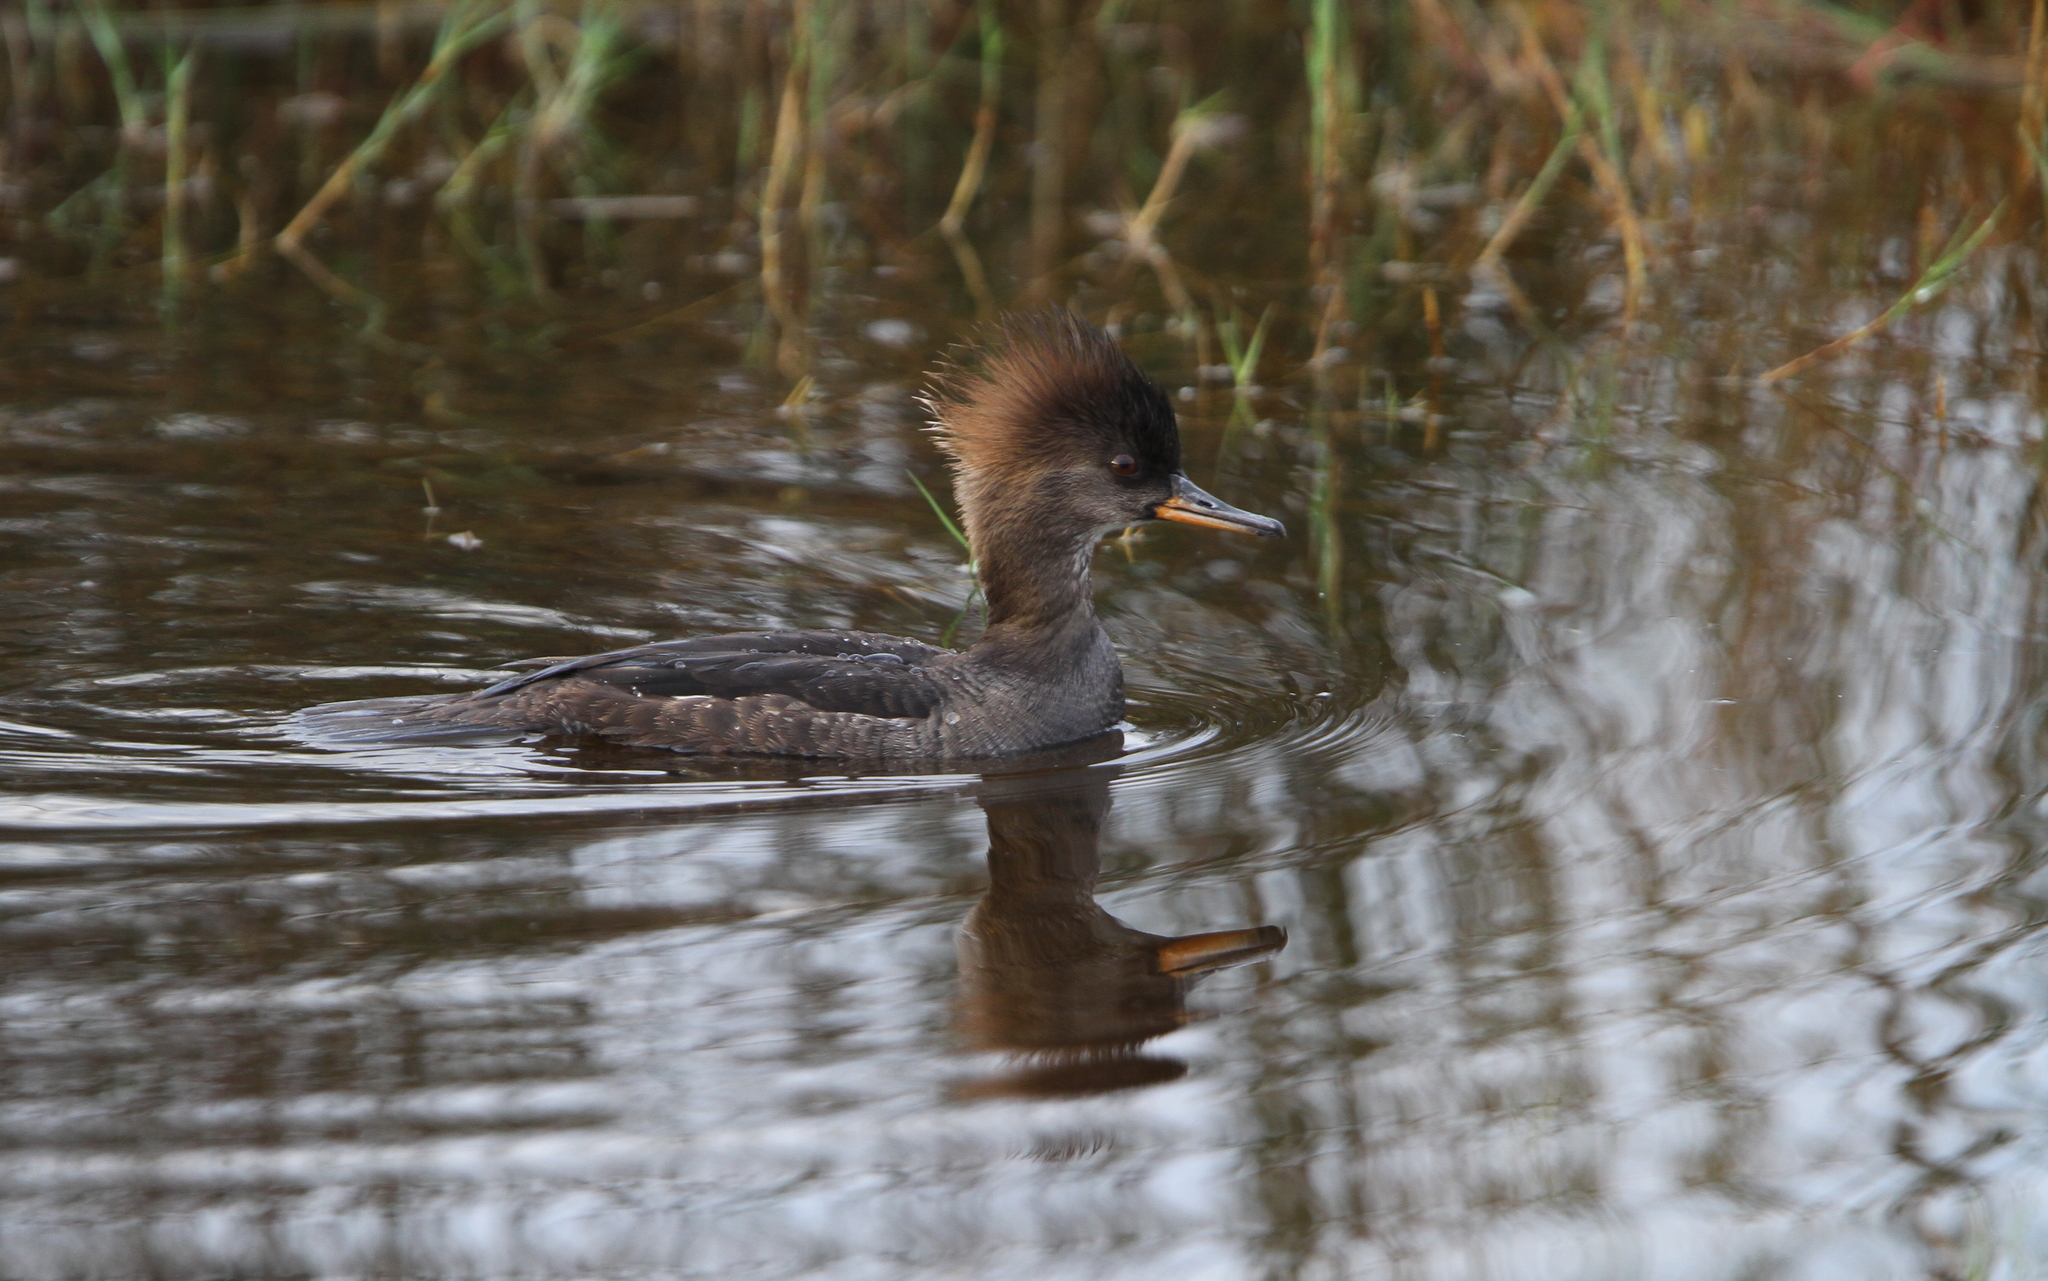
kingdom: Animalia
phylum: Chordata
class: Aves
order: Anseriformes
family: Anatidae
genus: Lophodytes
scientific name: Lophodytes cucullatus
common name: Hooded merganser
